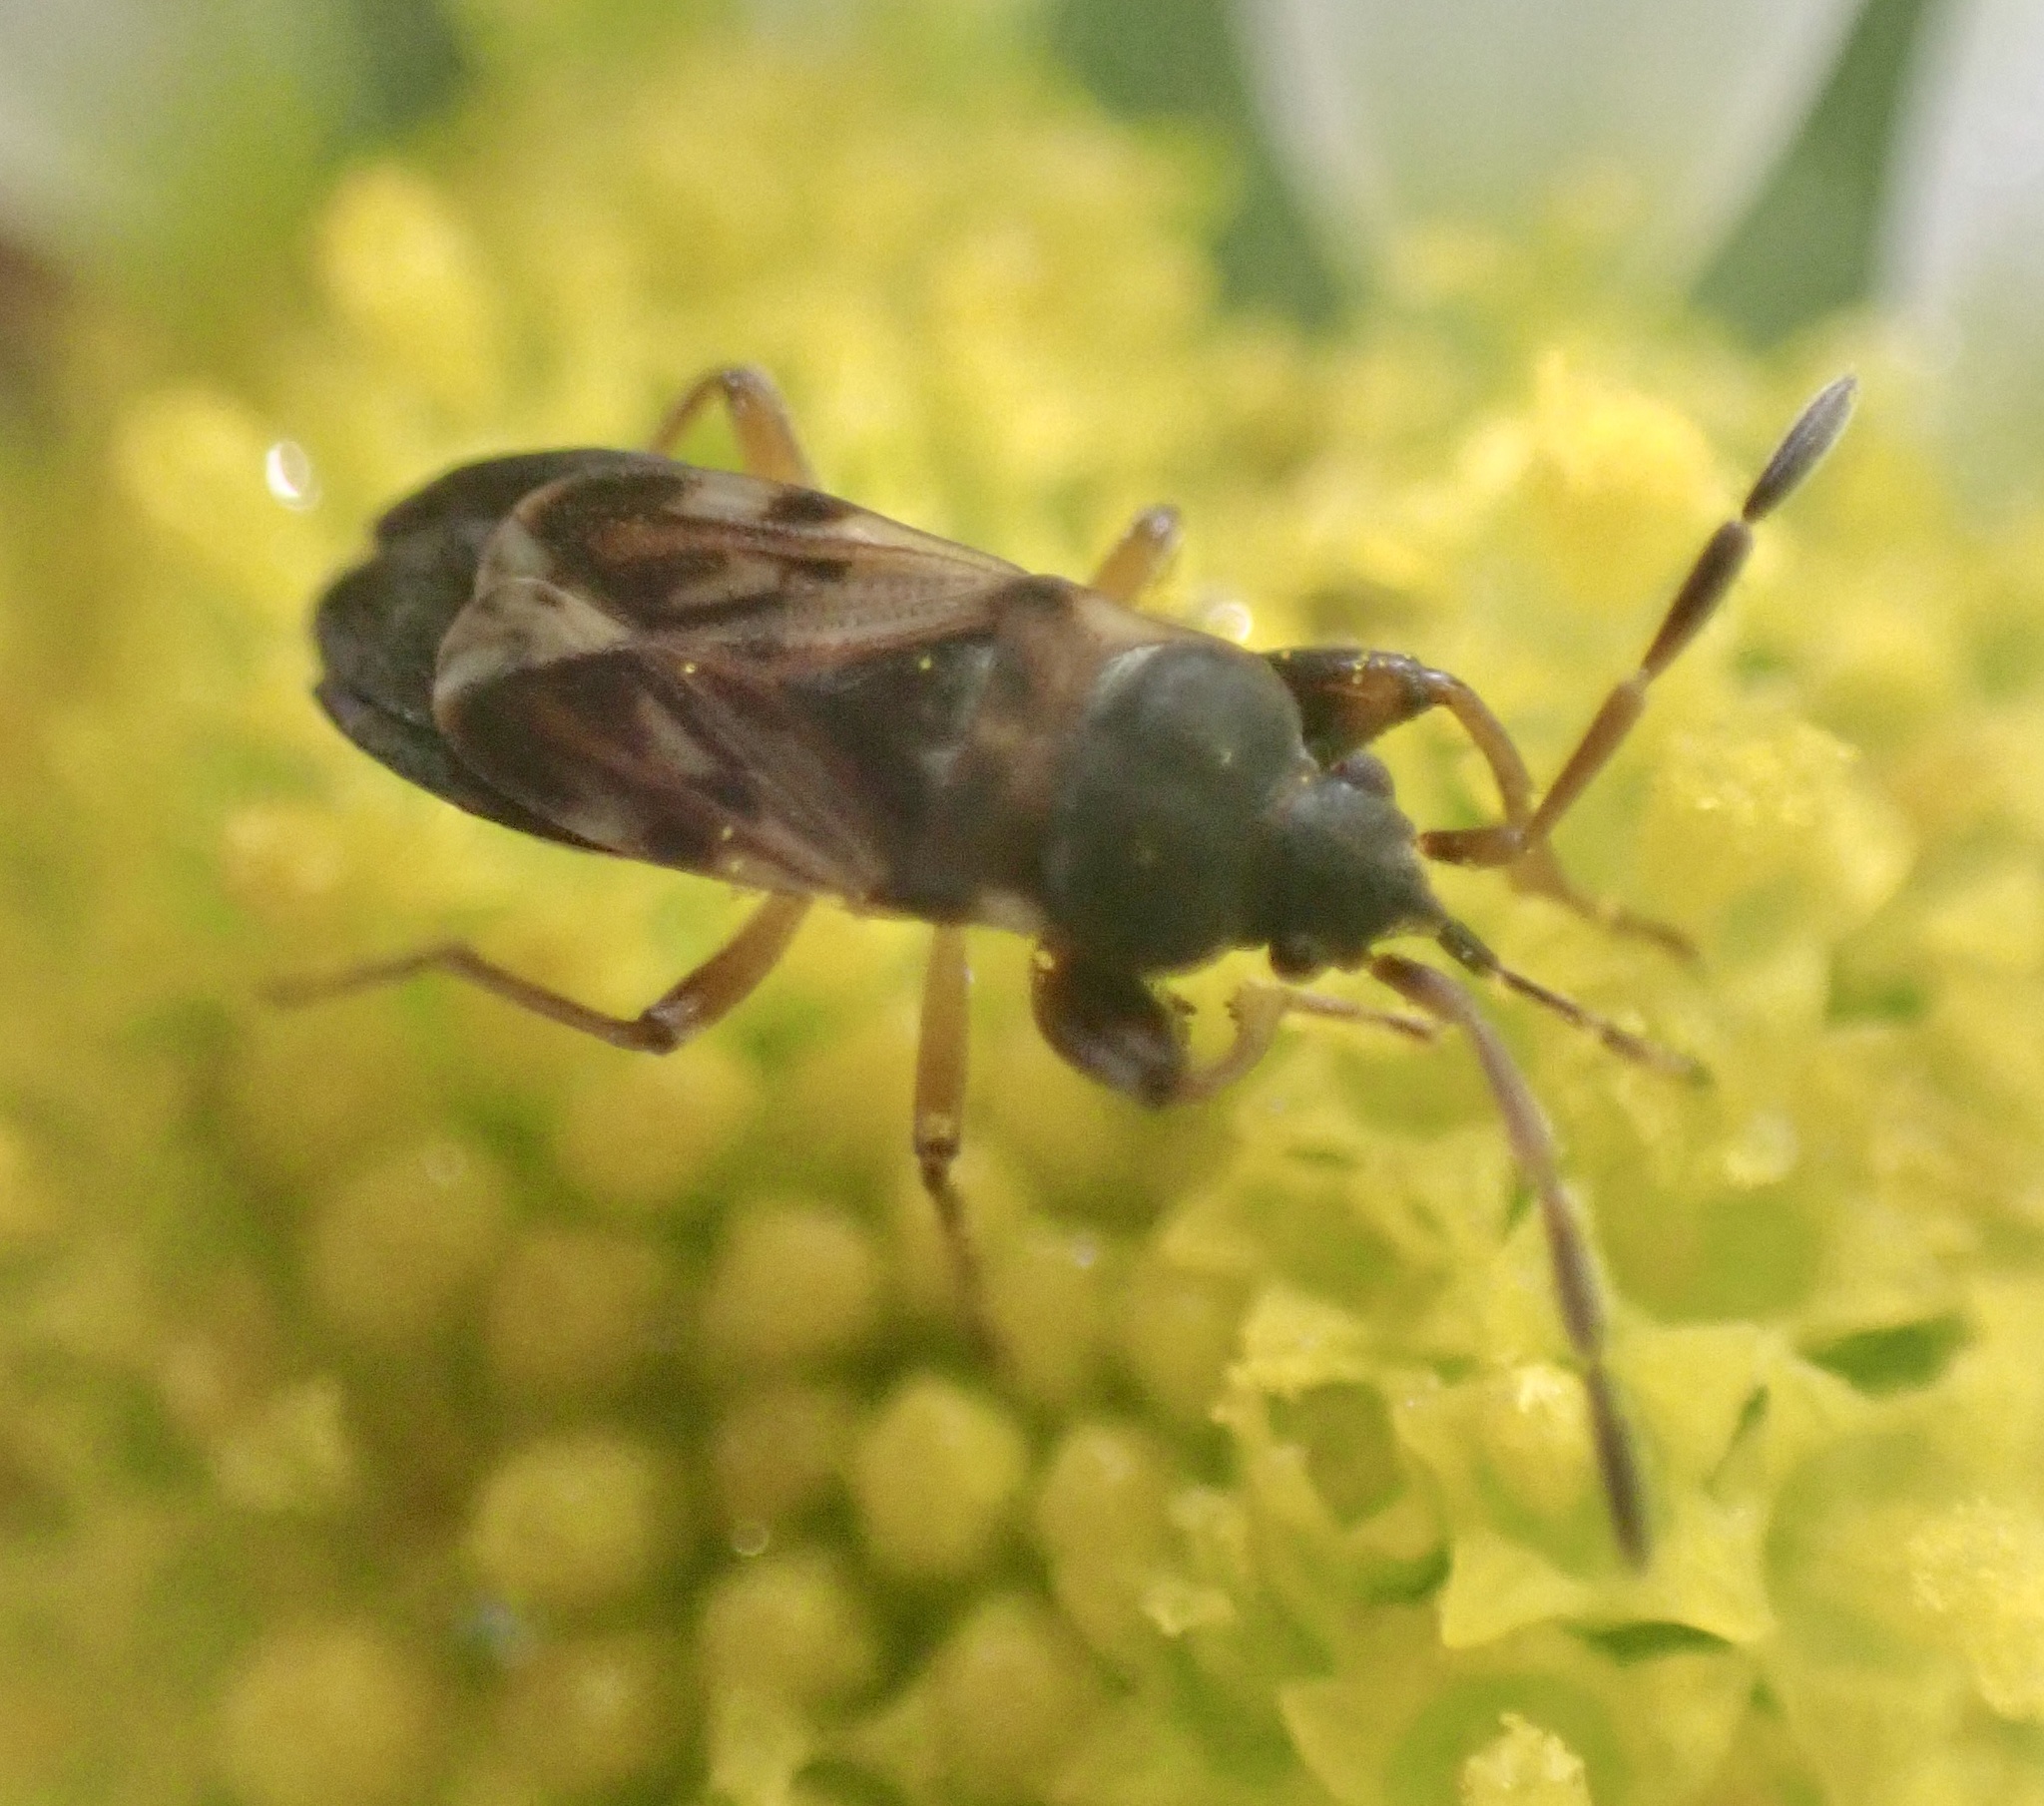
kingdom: Animalia
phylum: Arthropoda
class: Insecta
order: Hemiptera
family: Rhyparochromidae
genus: Scolopostethus
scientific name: Scolopostethus affinis
